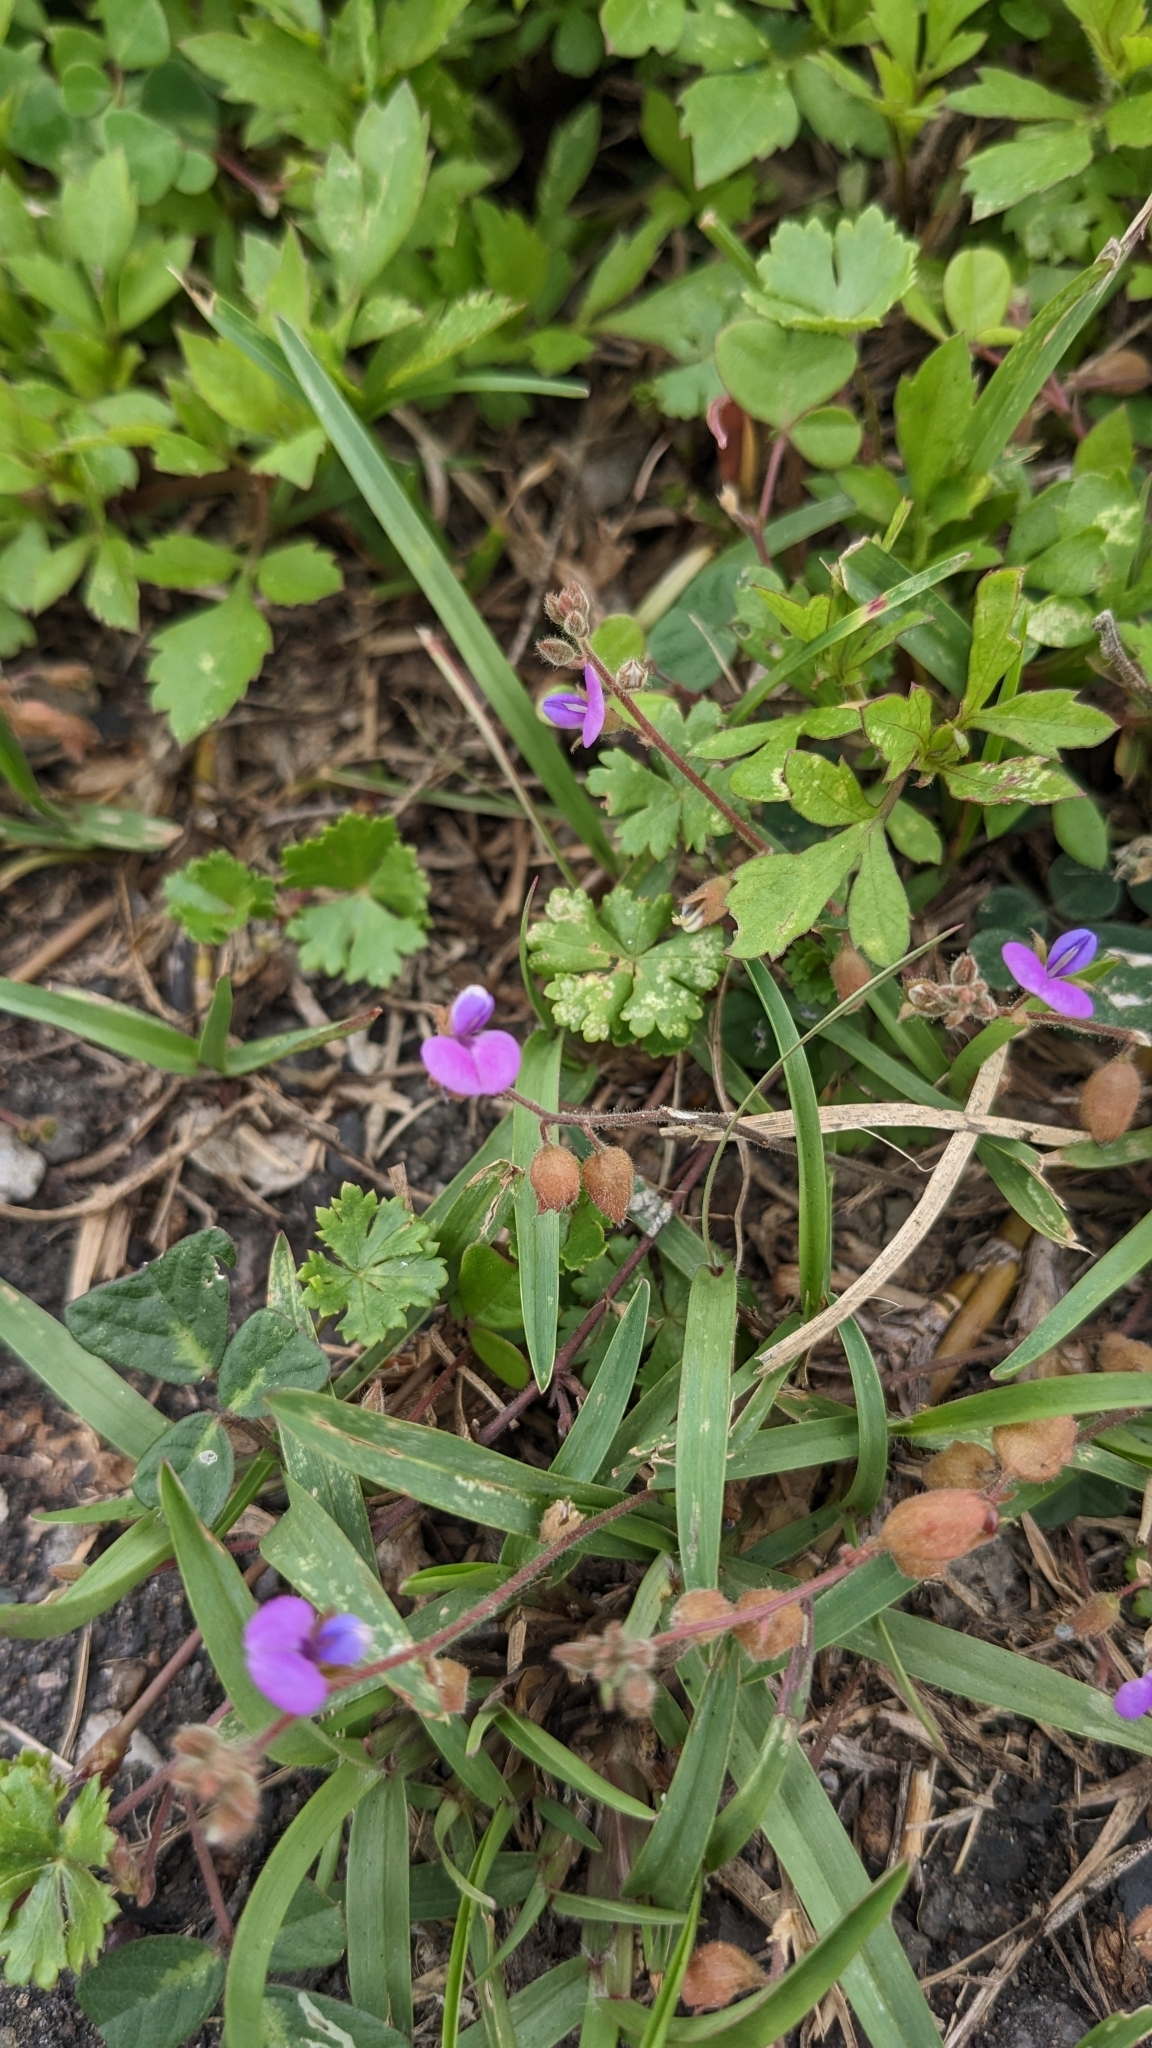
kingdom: Plantae
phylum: Tracheophyta
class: Magnoliopsida
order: Fabales
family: Fabaceae
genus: Christia
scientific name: Christia obcordata
